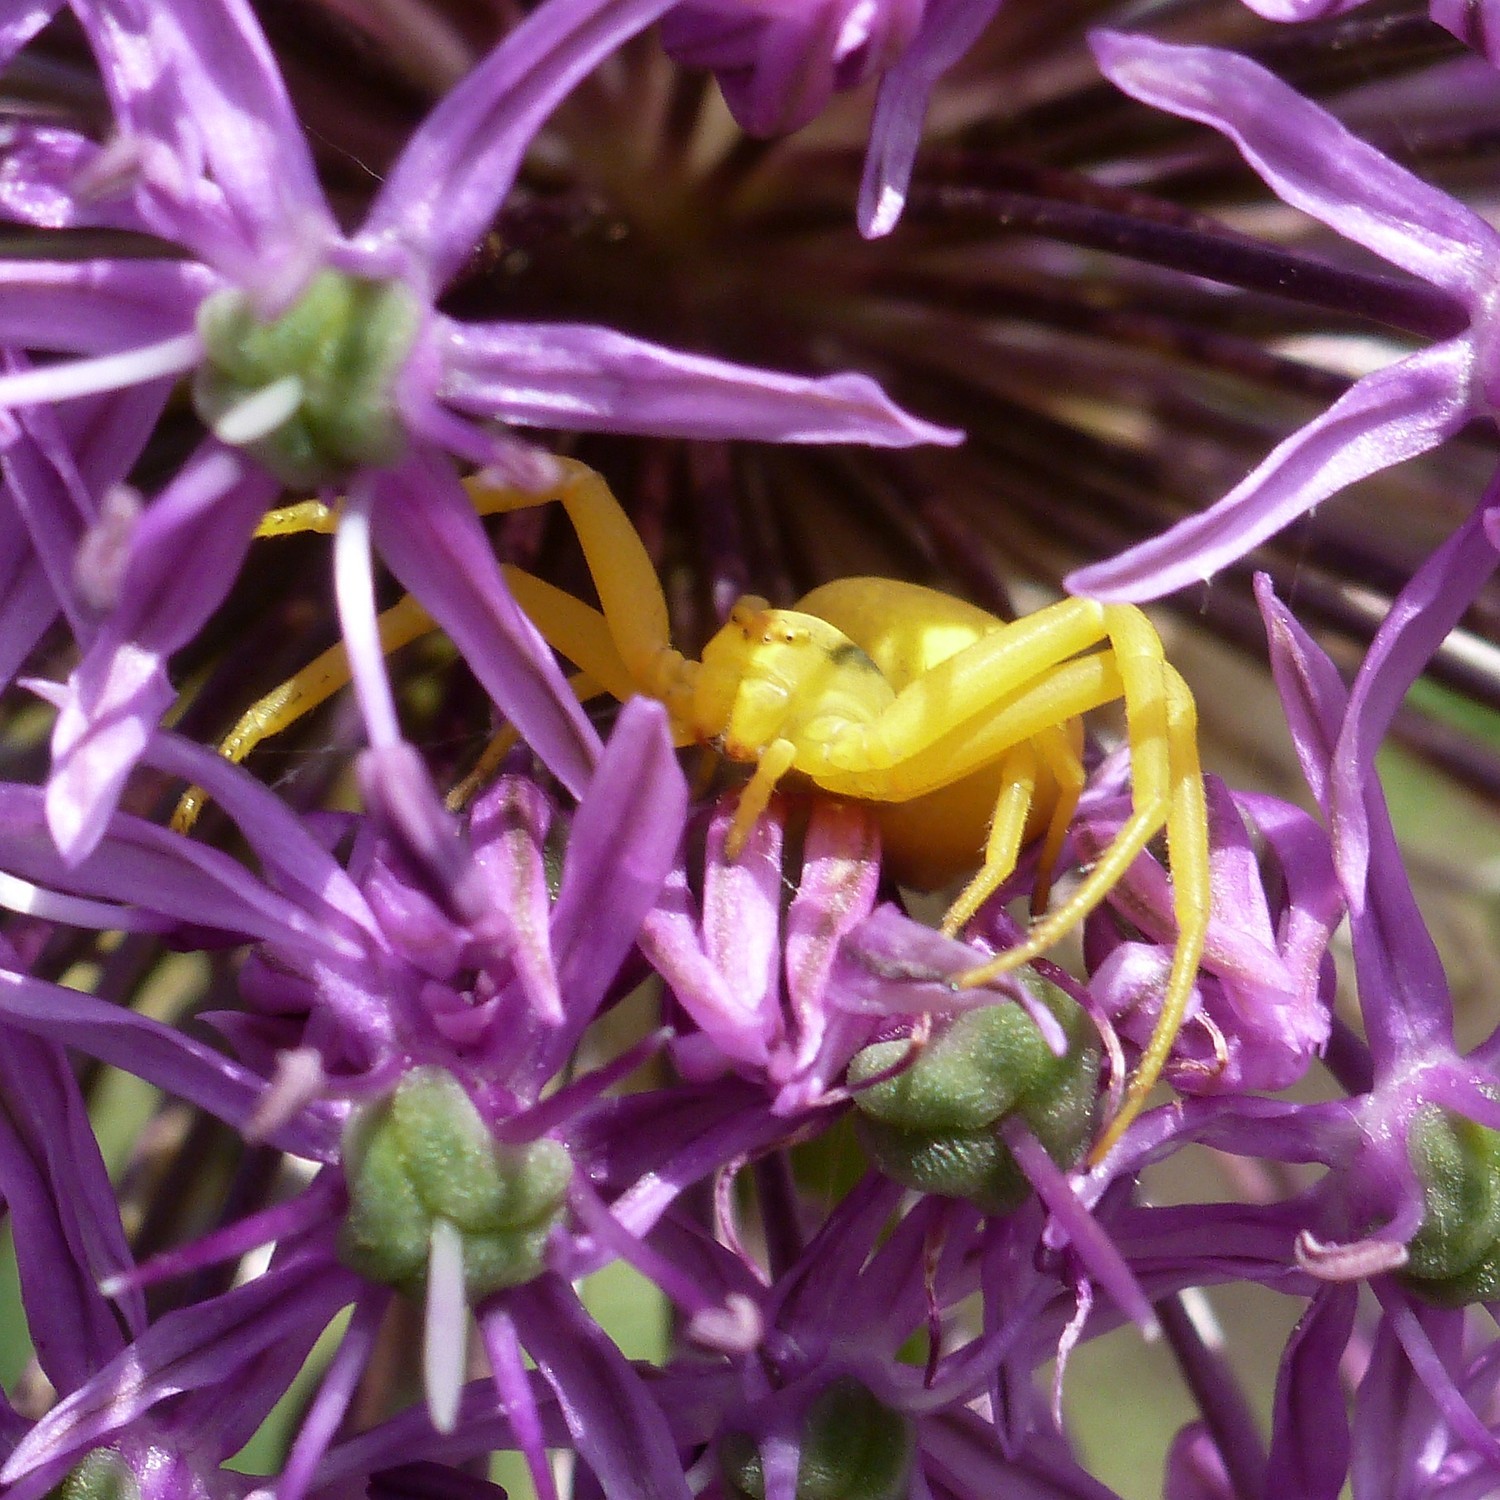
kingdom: Animalia
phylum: Arthropoda
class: Arachnida
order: Araneae
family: Thomisidae
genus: Misumena
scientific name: Misumena vatia
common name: Goldenrod crab spider
